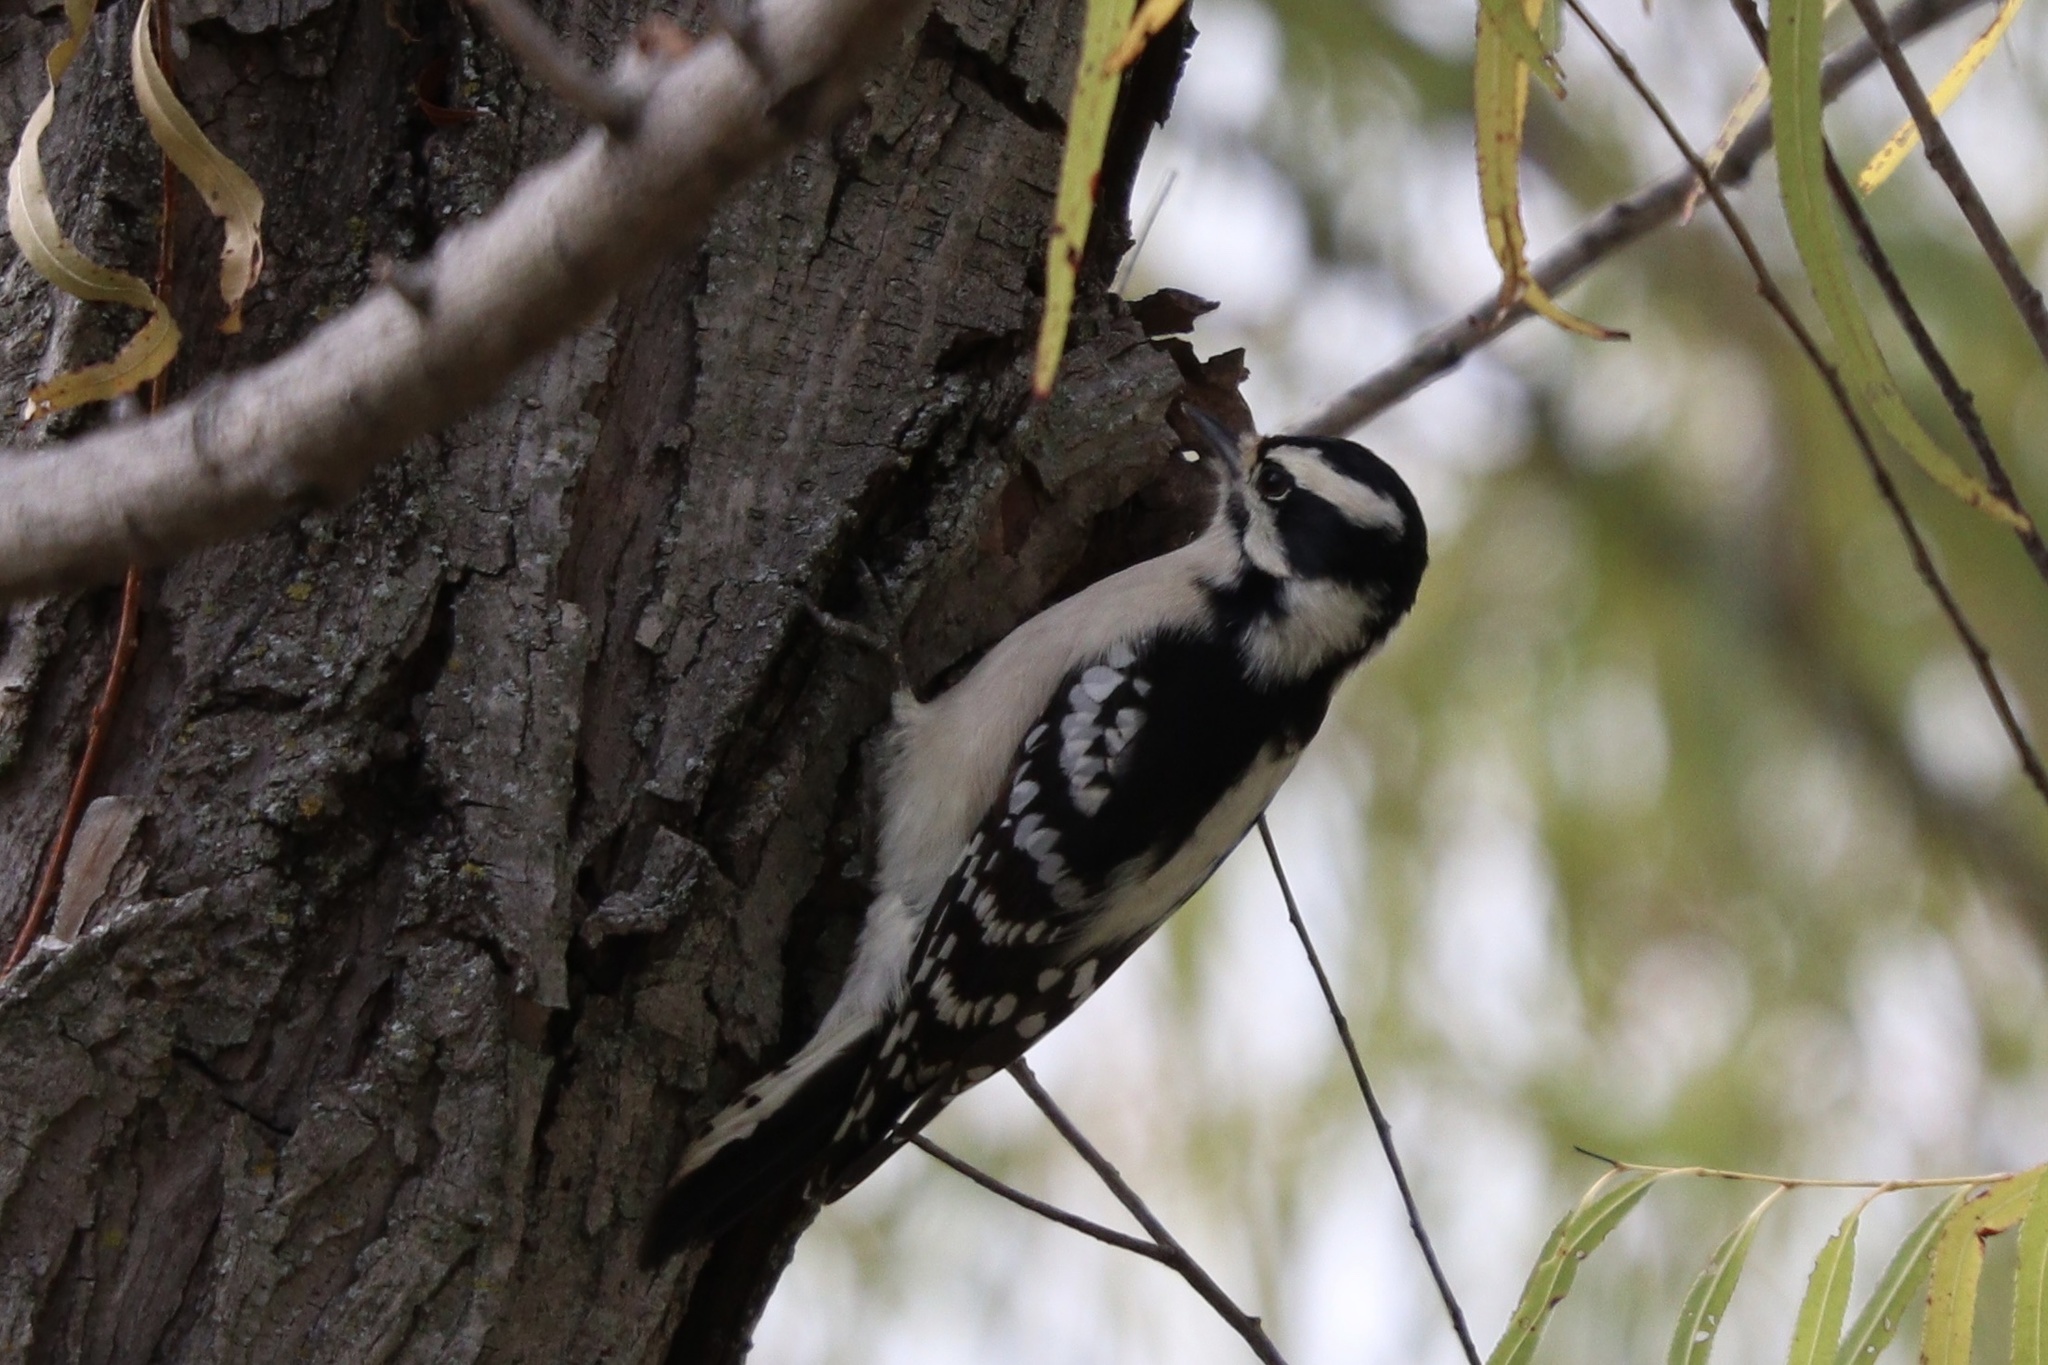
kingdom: Animalia
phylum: Chordata
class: Aves
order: Piciformes
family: Picidae
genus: Dryobates
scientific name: Dryobates pubescens
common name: Downy woodpecker
